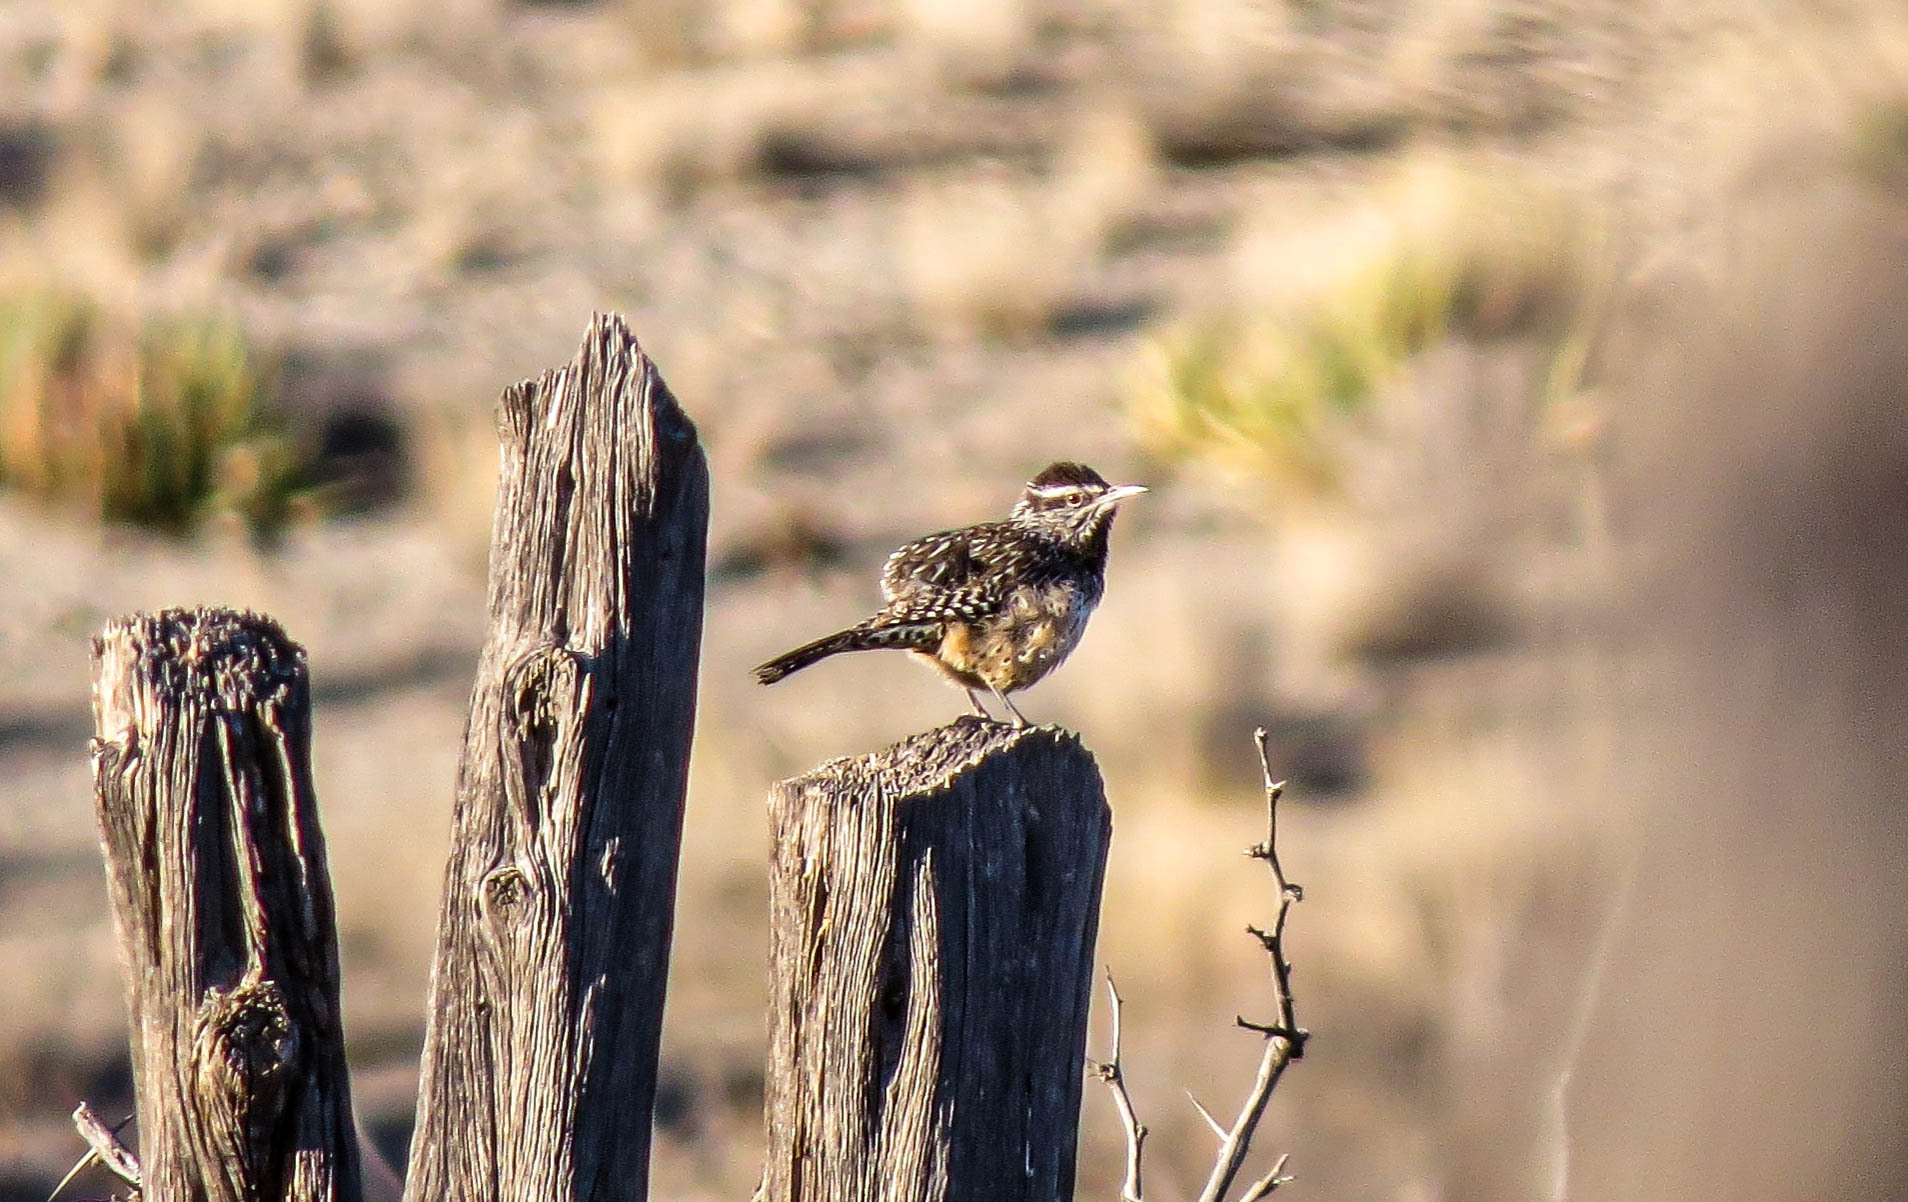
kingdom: Animalia
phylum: Chordata
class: Aves
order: Passeriformes
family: Troglodytidae
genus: Campylorhynchus
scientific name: Campylorhynchus brunneicapillus
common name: Cactus wren
